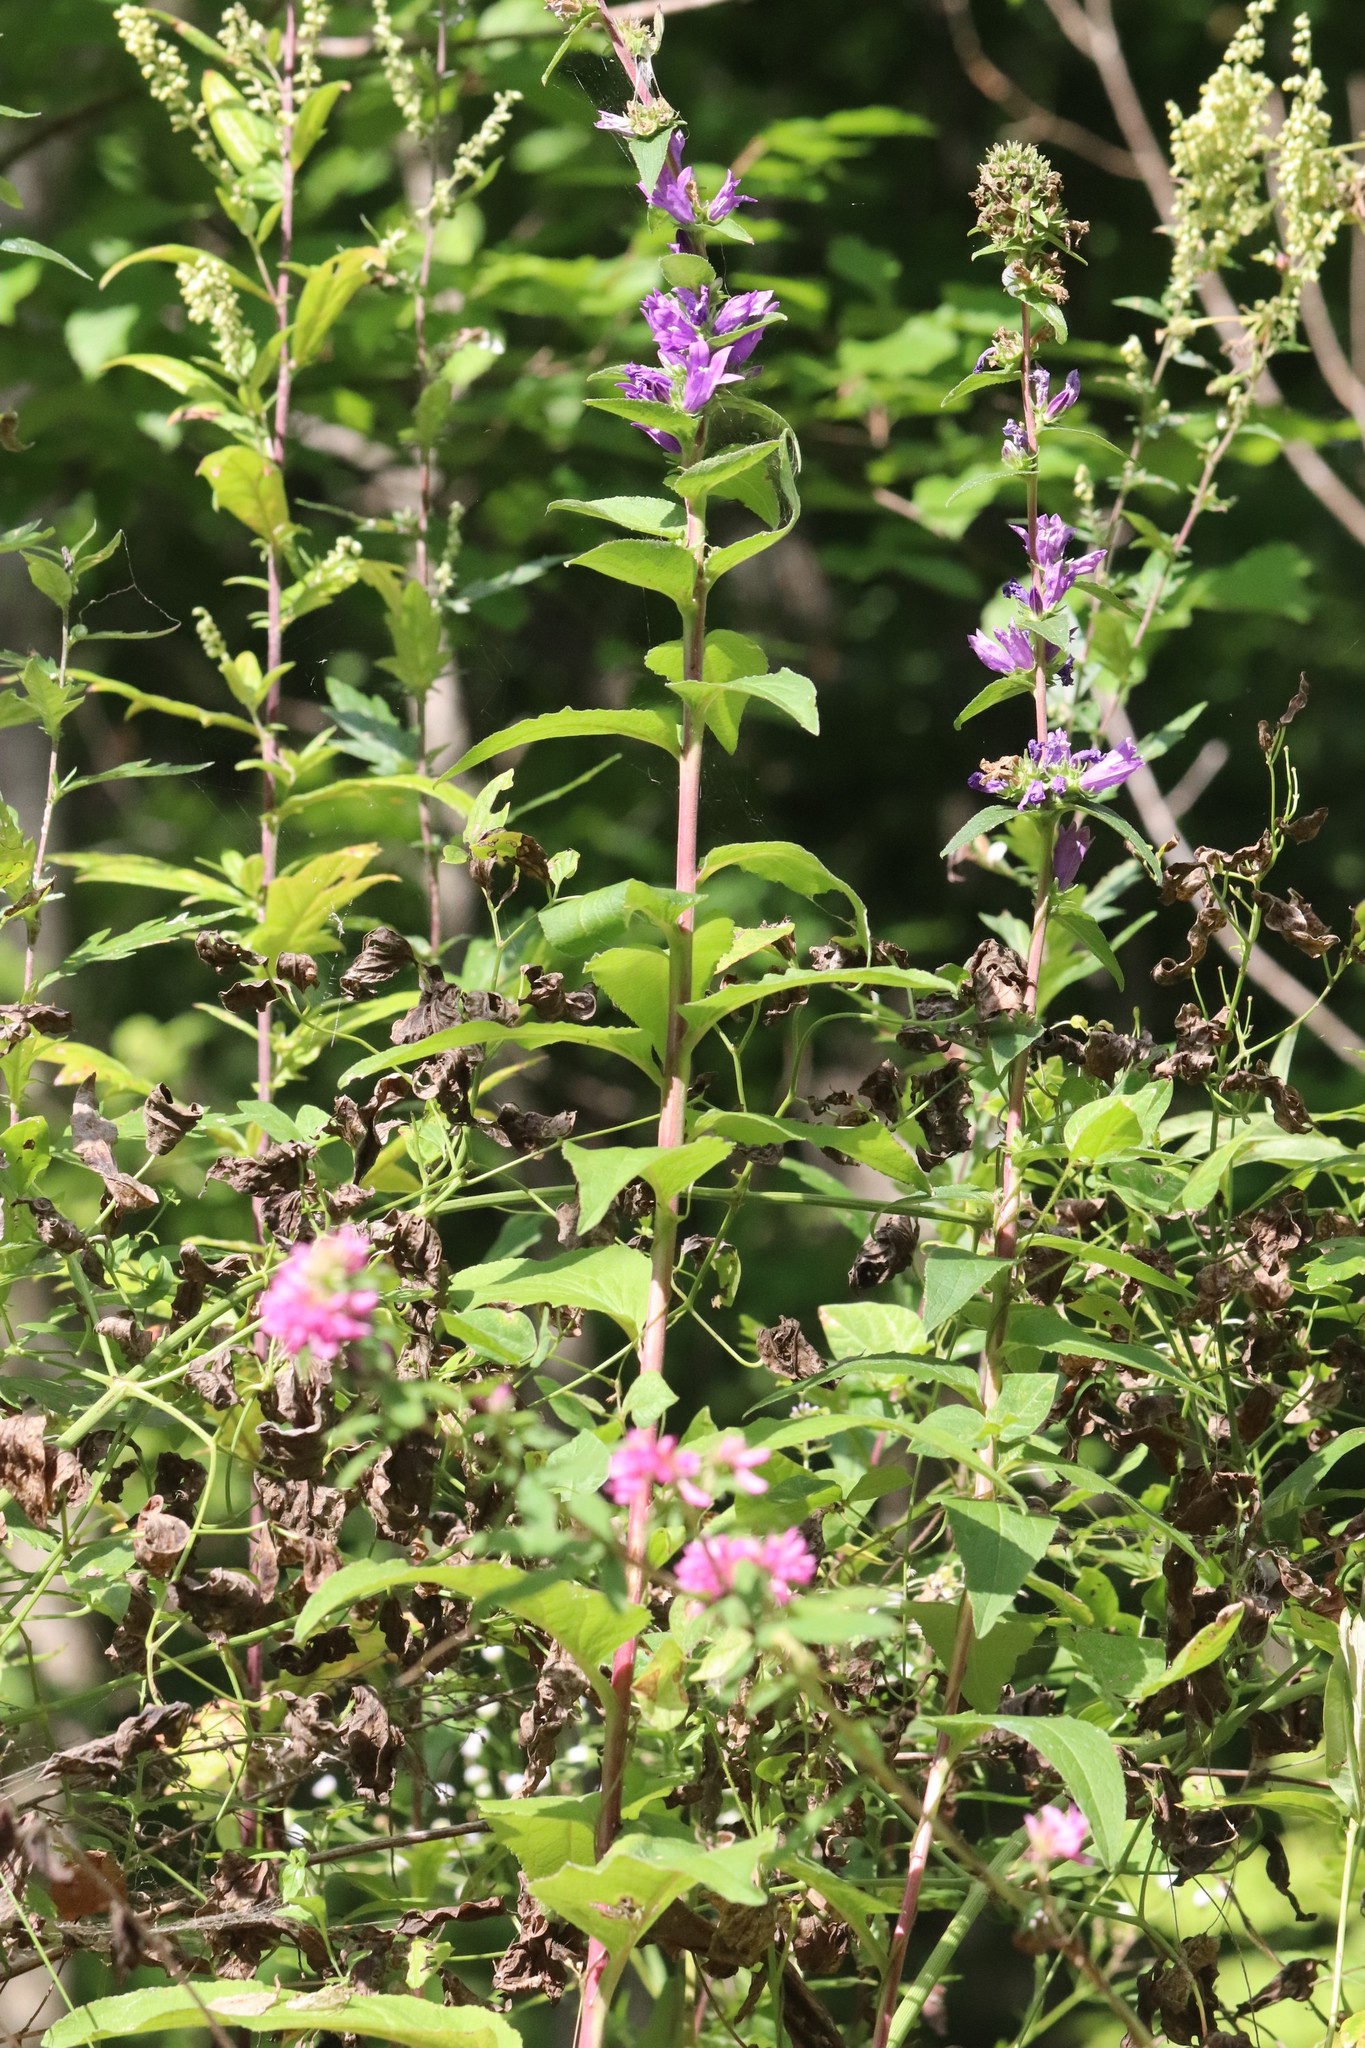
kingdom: Plantae
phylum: Tracheophyta
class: Magnoliopsida
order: Asterales
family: Campanulaceae
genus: Campanula
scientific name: Campanula glomerata
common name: Clustered bellflower
